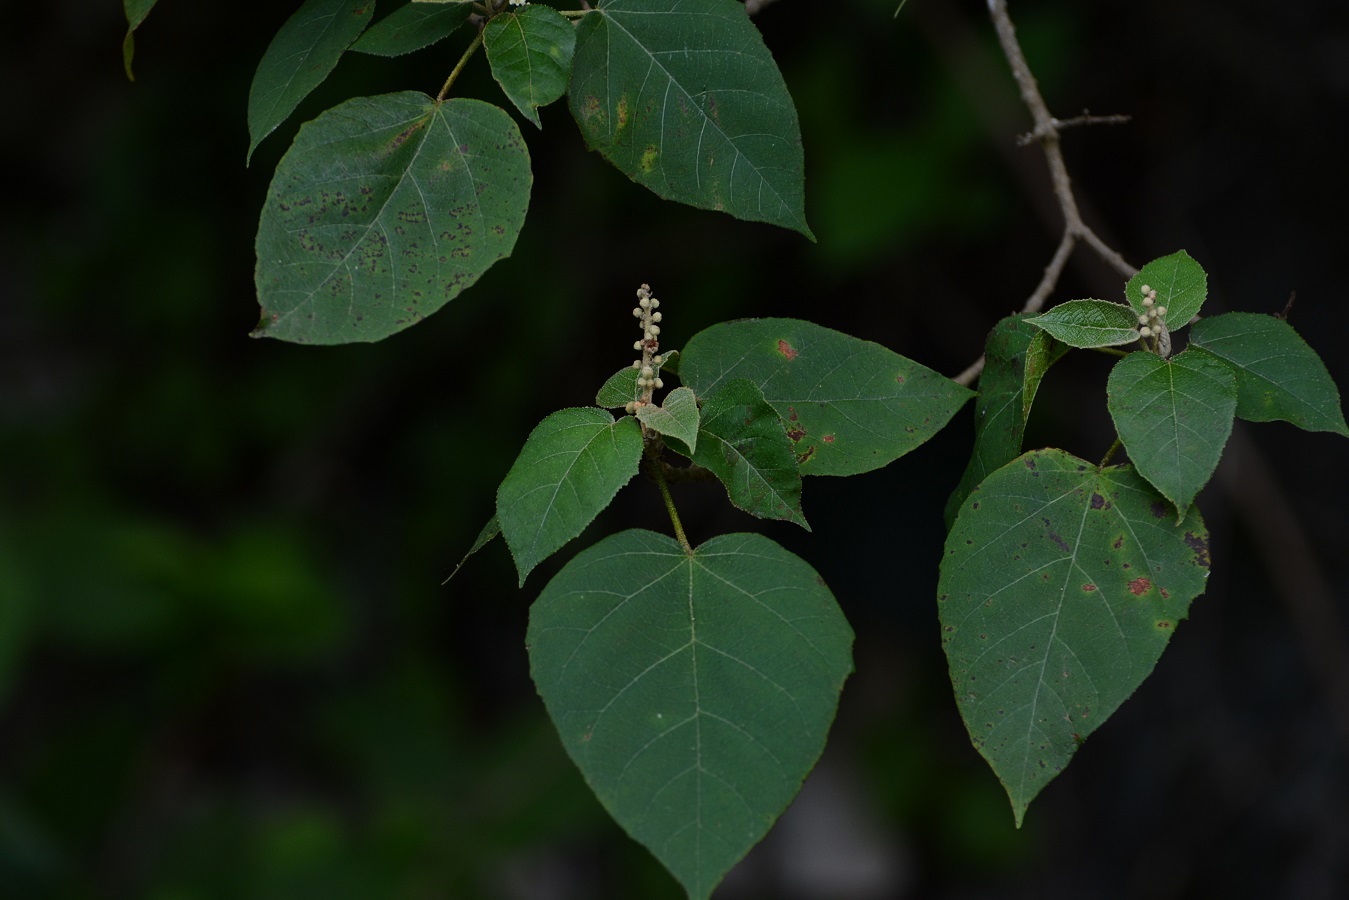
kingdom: Plantae
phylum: Tracheophyta
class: Magnoliopsida
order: Malpighiales
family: Euphorbiaceae
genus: Croton
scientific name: Croton francoanus
